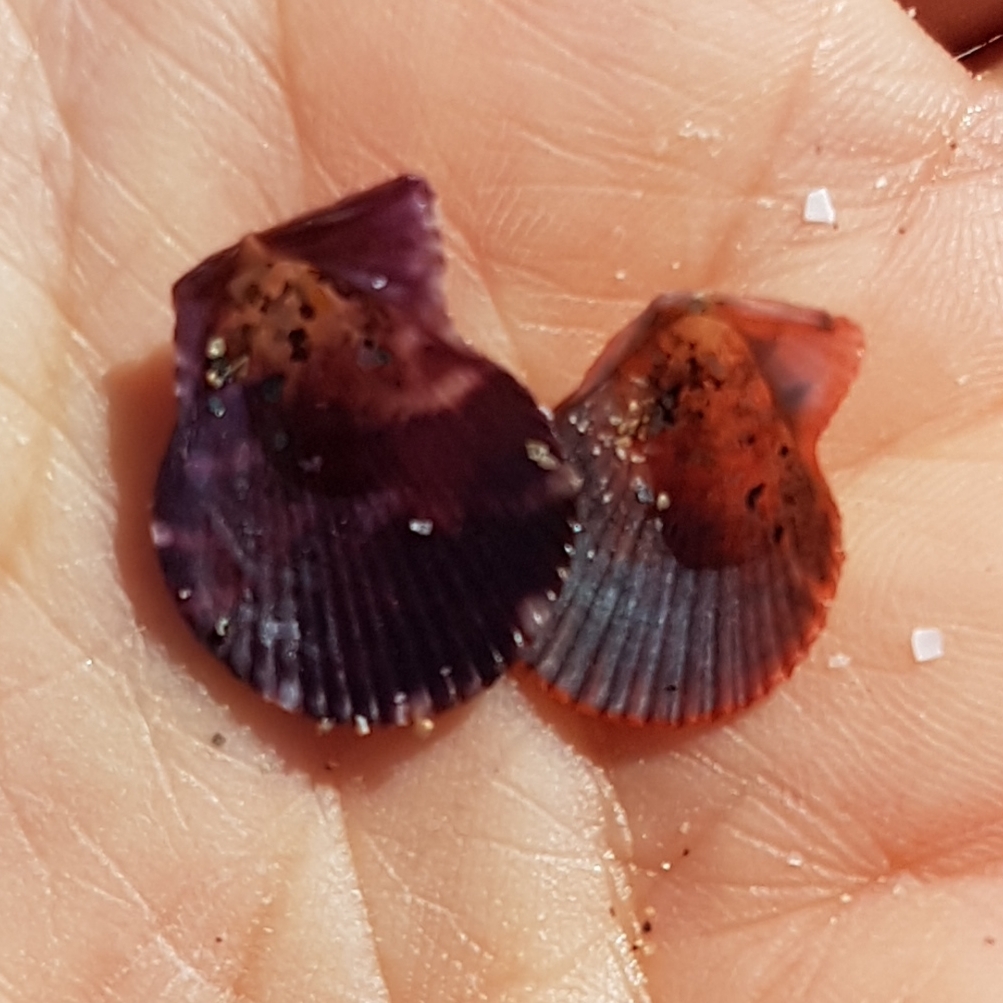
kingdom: Animalia
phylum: Mollusca
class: Bivalvia
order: Pectinida
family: Pectinidae
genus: Talochlamys
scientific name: Talochlamys multistriata
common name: Tinted scallop
